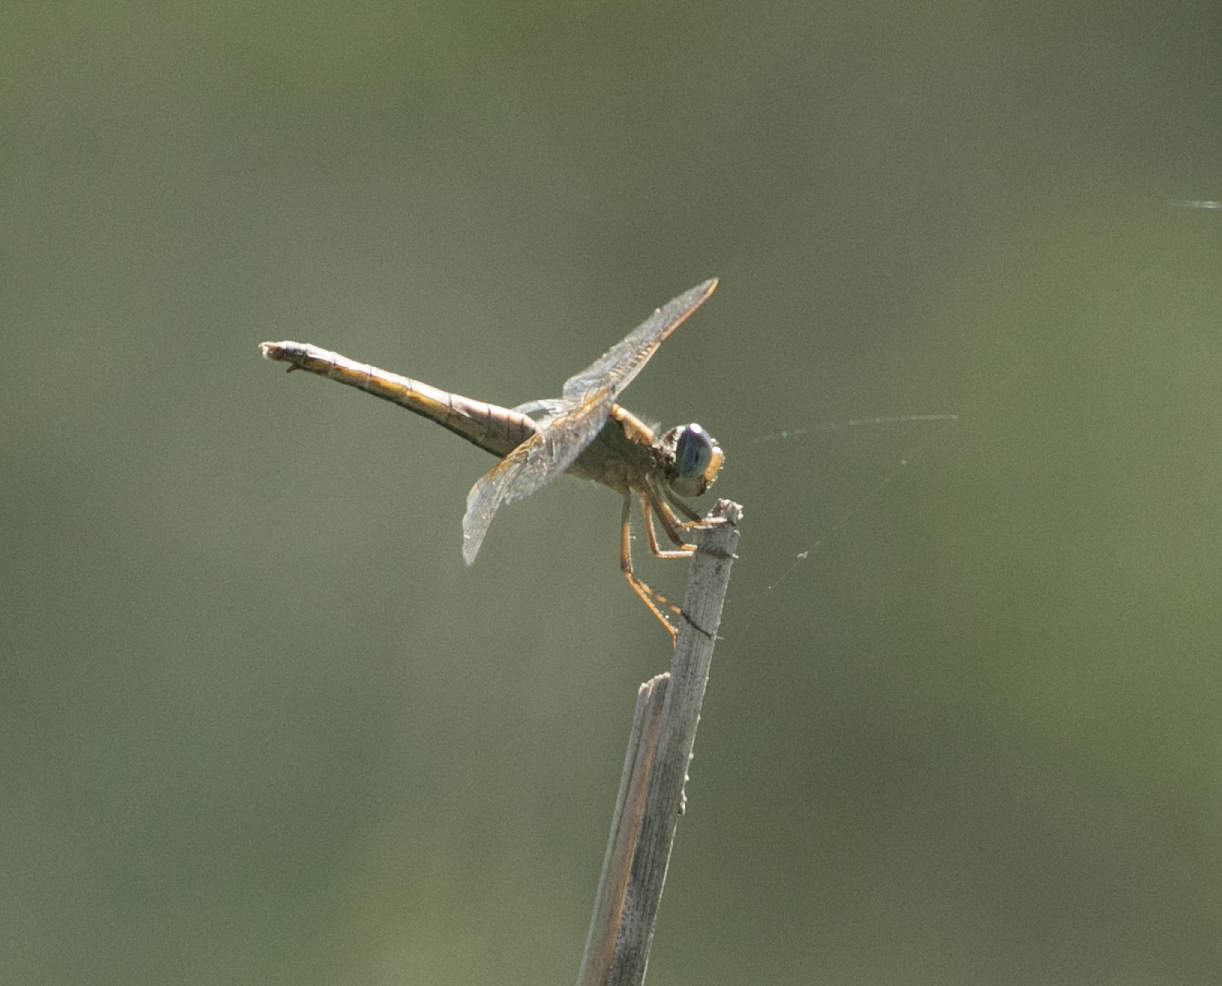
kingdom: Animalia
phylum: Arthropoda
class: Insecta
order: Odonata
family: Libellulidae
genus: Crocothemis
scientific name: Crocothemis erythraea
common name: Scarlet dragonfly
